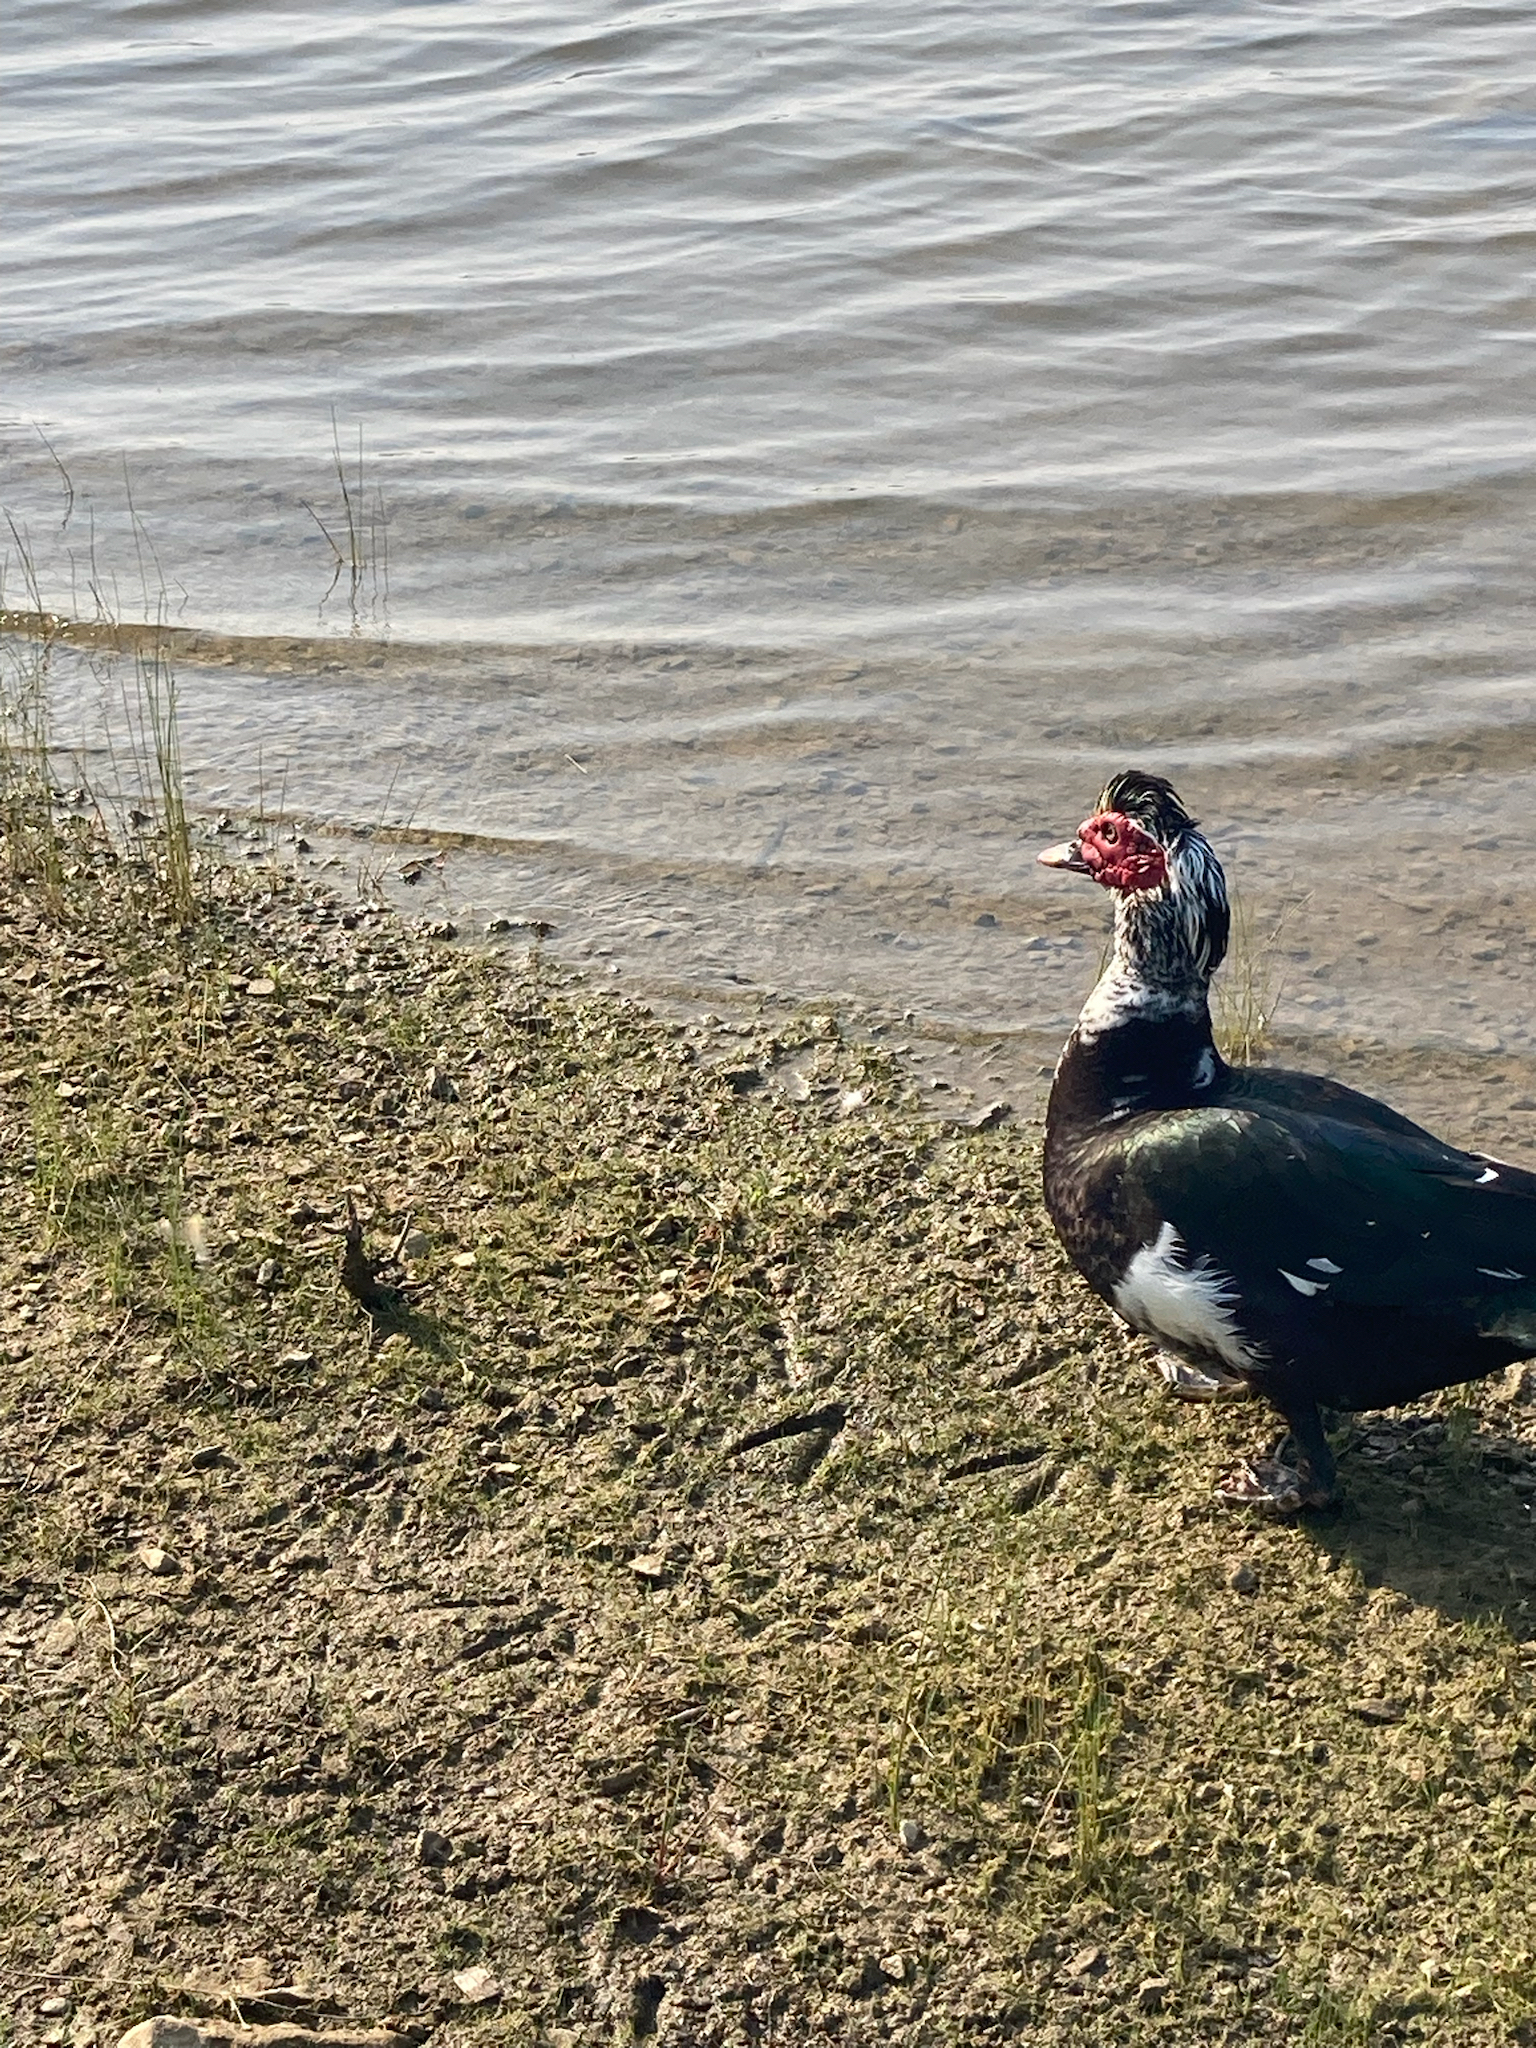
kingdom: Animalia
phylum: Chordata
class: Aves
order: Anseriformes
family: Anatidae
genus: Cairina
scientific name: Cairina moschata
